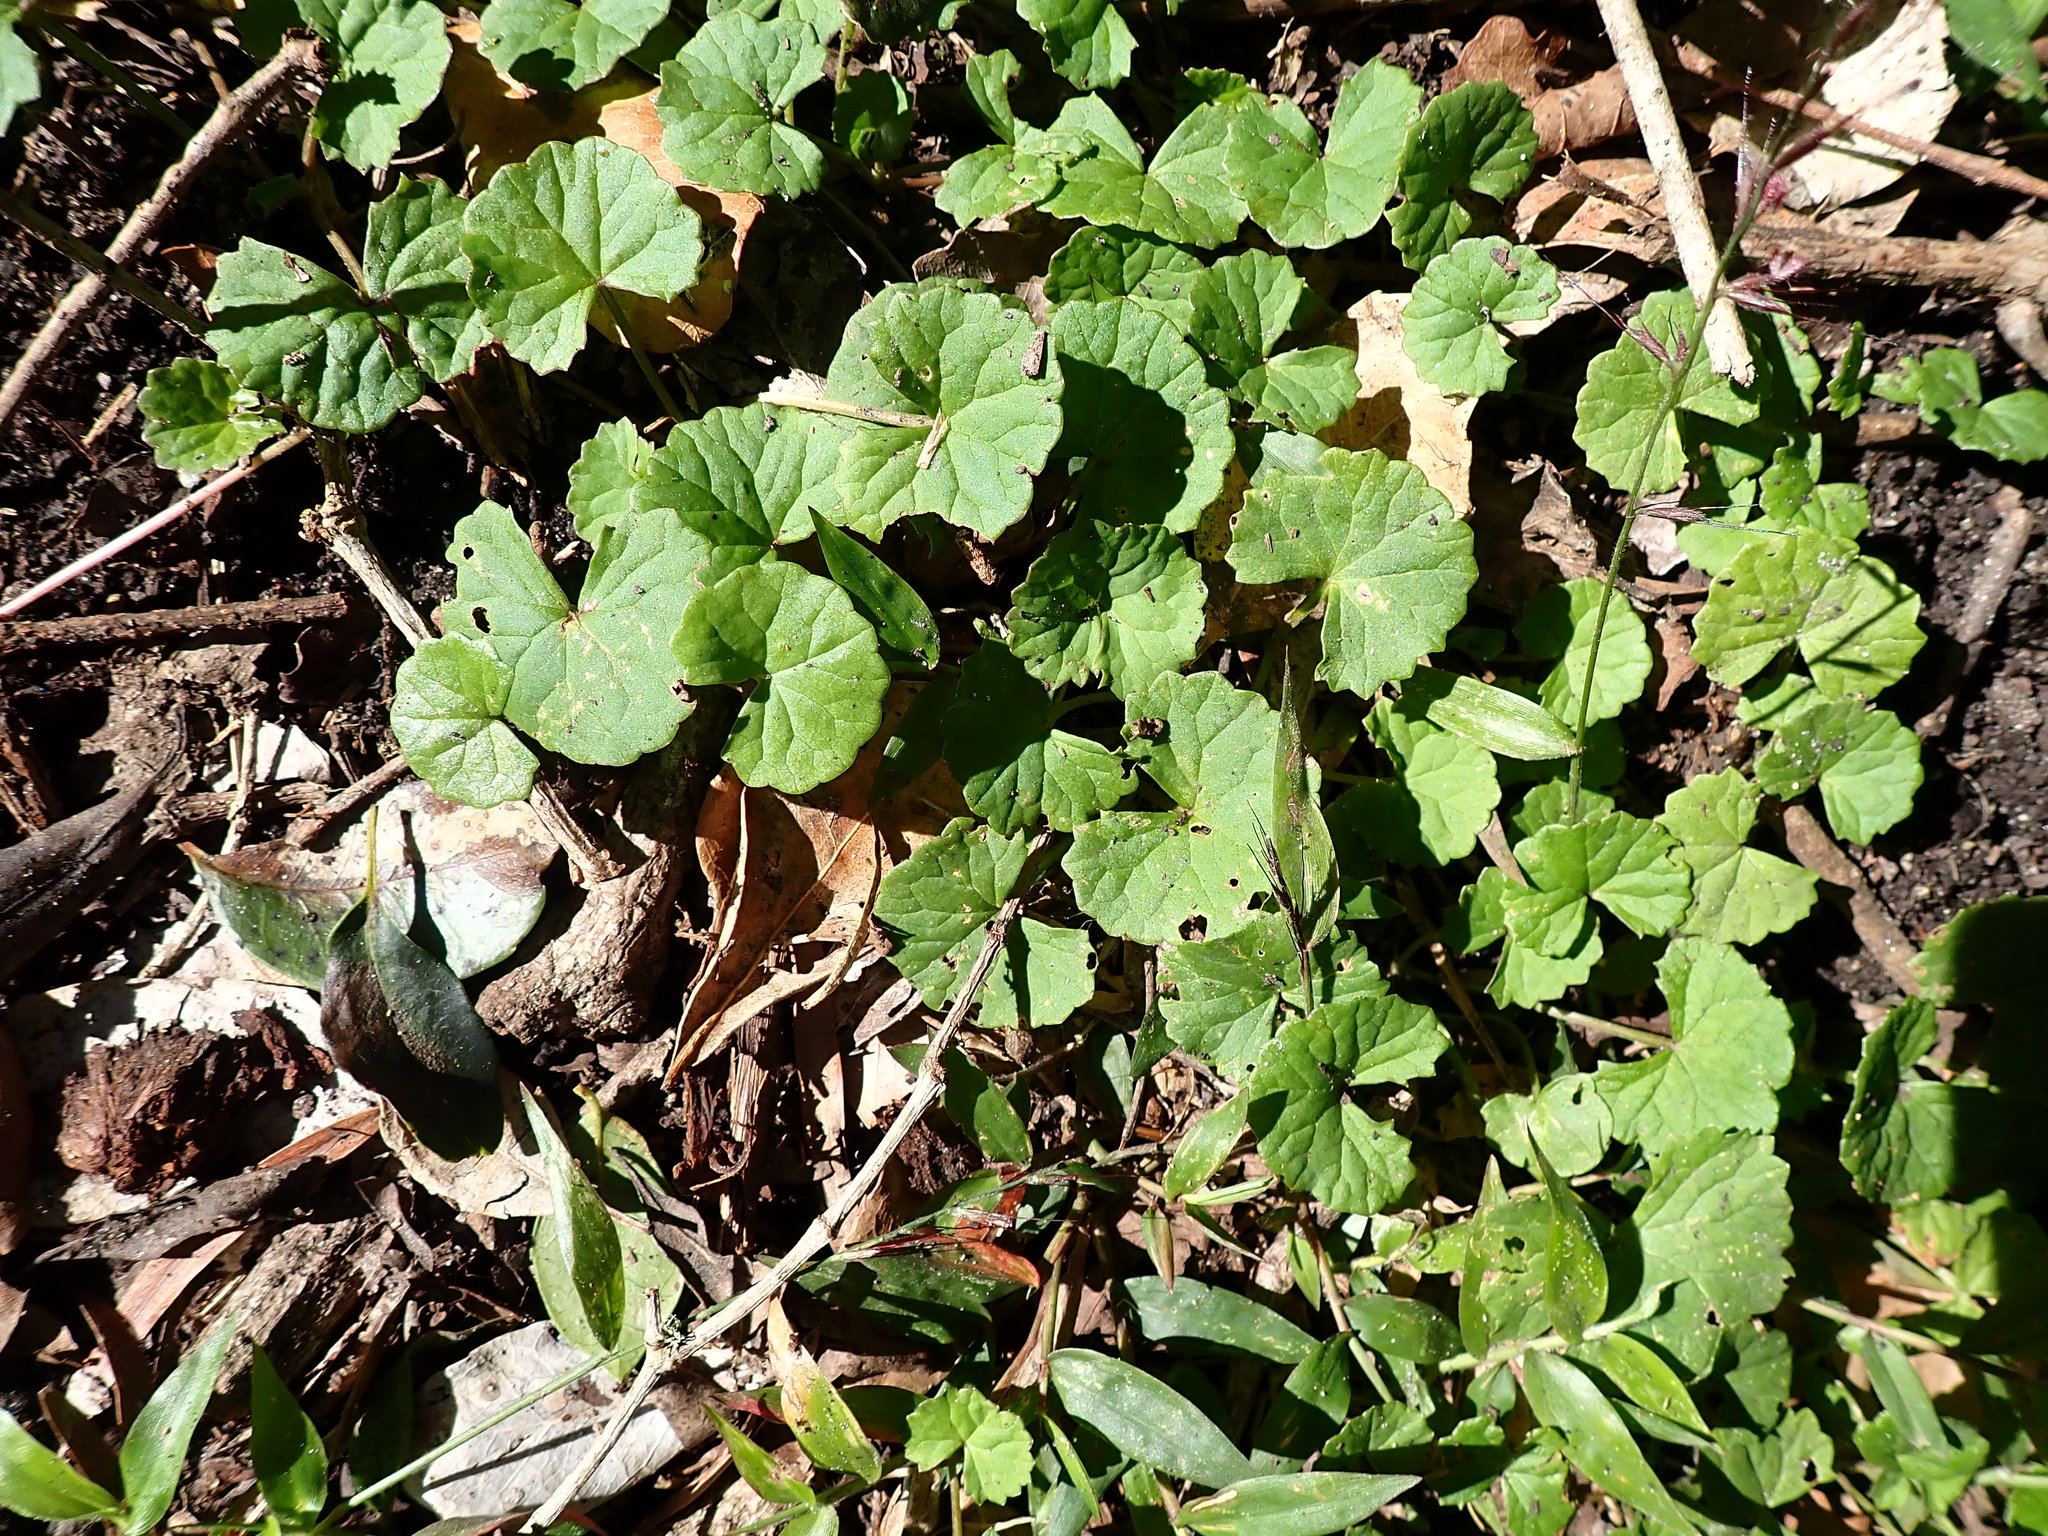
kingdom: Plantae
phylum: Tracheophyta
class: Magnoliopsida
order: Apiales
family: Apiaceae
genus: Centella
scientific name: Centella asiatica
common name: Spadeleaf
